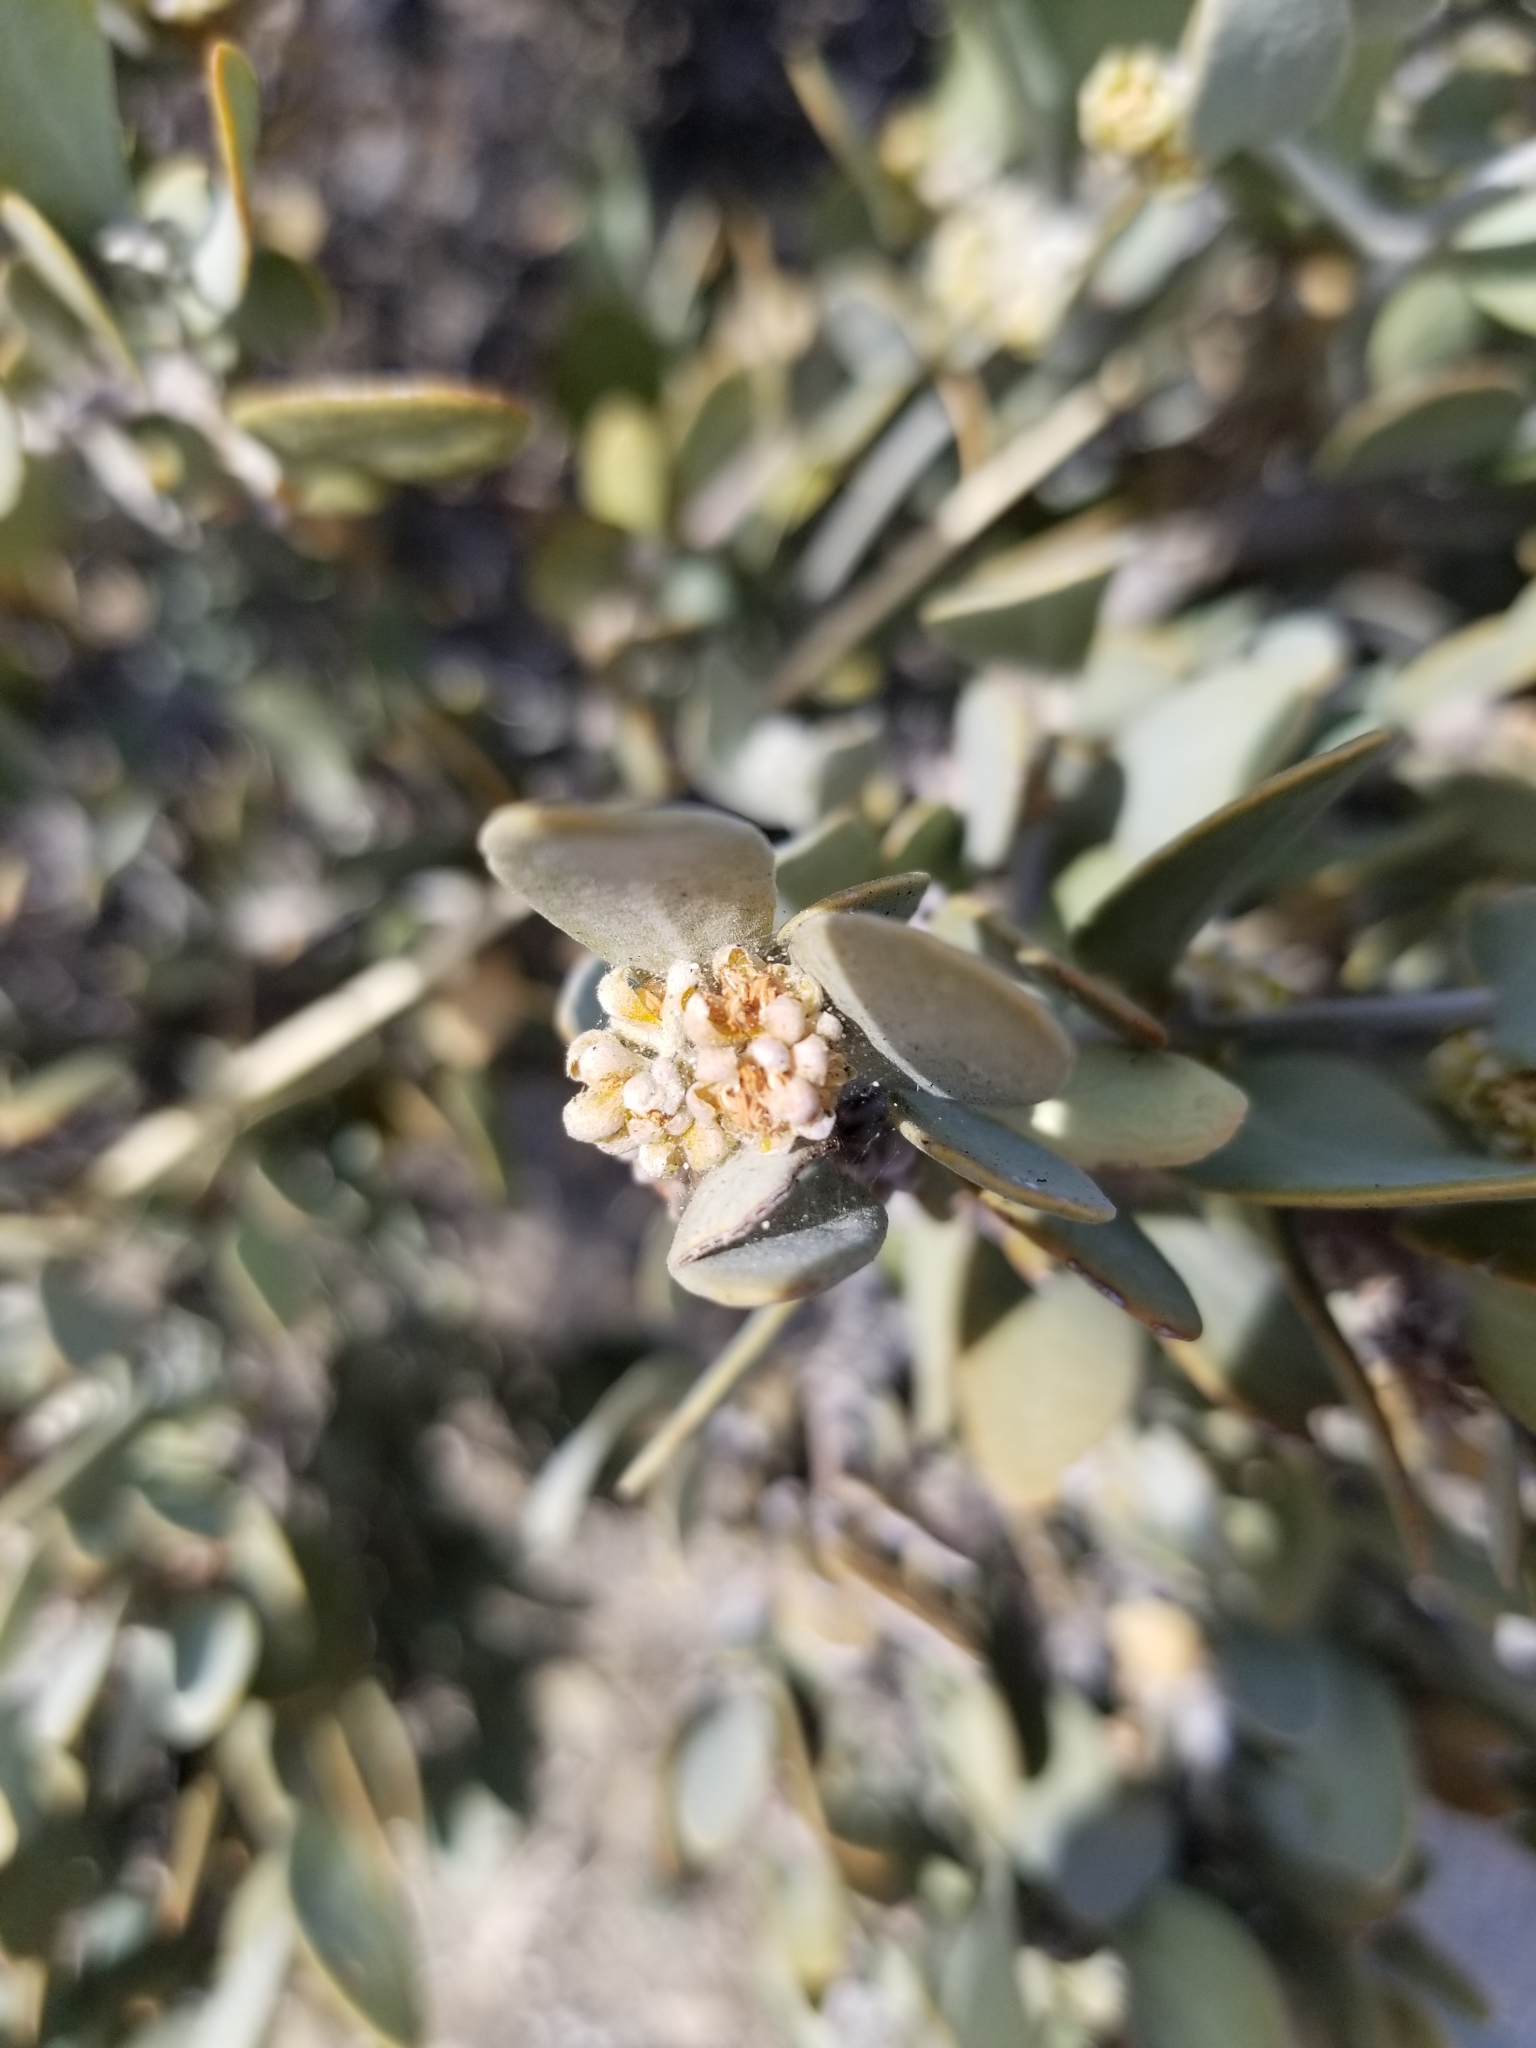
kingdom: Plantae
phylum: Tracheophyta
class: Magnoliopsida
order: Caryophyllales
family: Simmondsiaceae
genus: Simmondsia
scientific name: Simmondsia chinensis
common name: Jojoba
